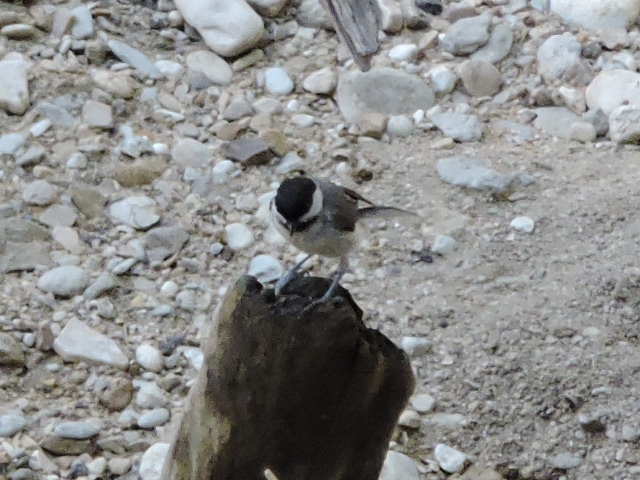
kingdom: Animalia
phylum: Chordata
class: Aves
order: Passeriformes
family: Paridae
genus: Poecile
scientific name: Poecile carolinensis
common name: Carolina chickadee
